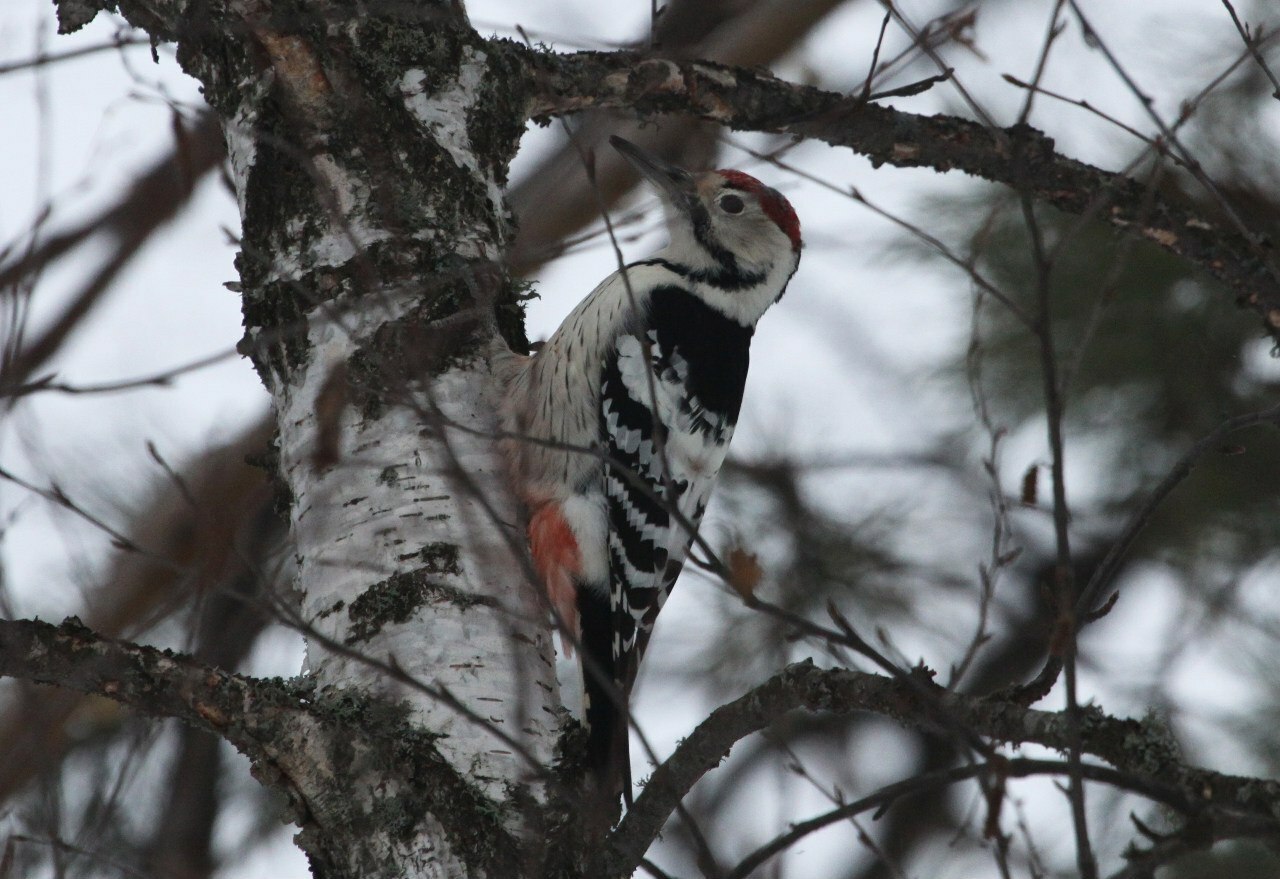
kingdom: Animalia
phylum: Chordata
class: Aves
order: Piciformes
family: Picidae
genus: Dendrocopos
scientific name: Dendrocopos leucotos
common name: White-backed woodpecker
